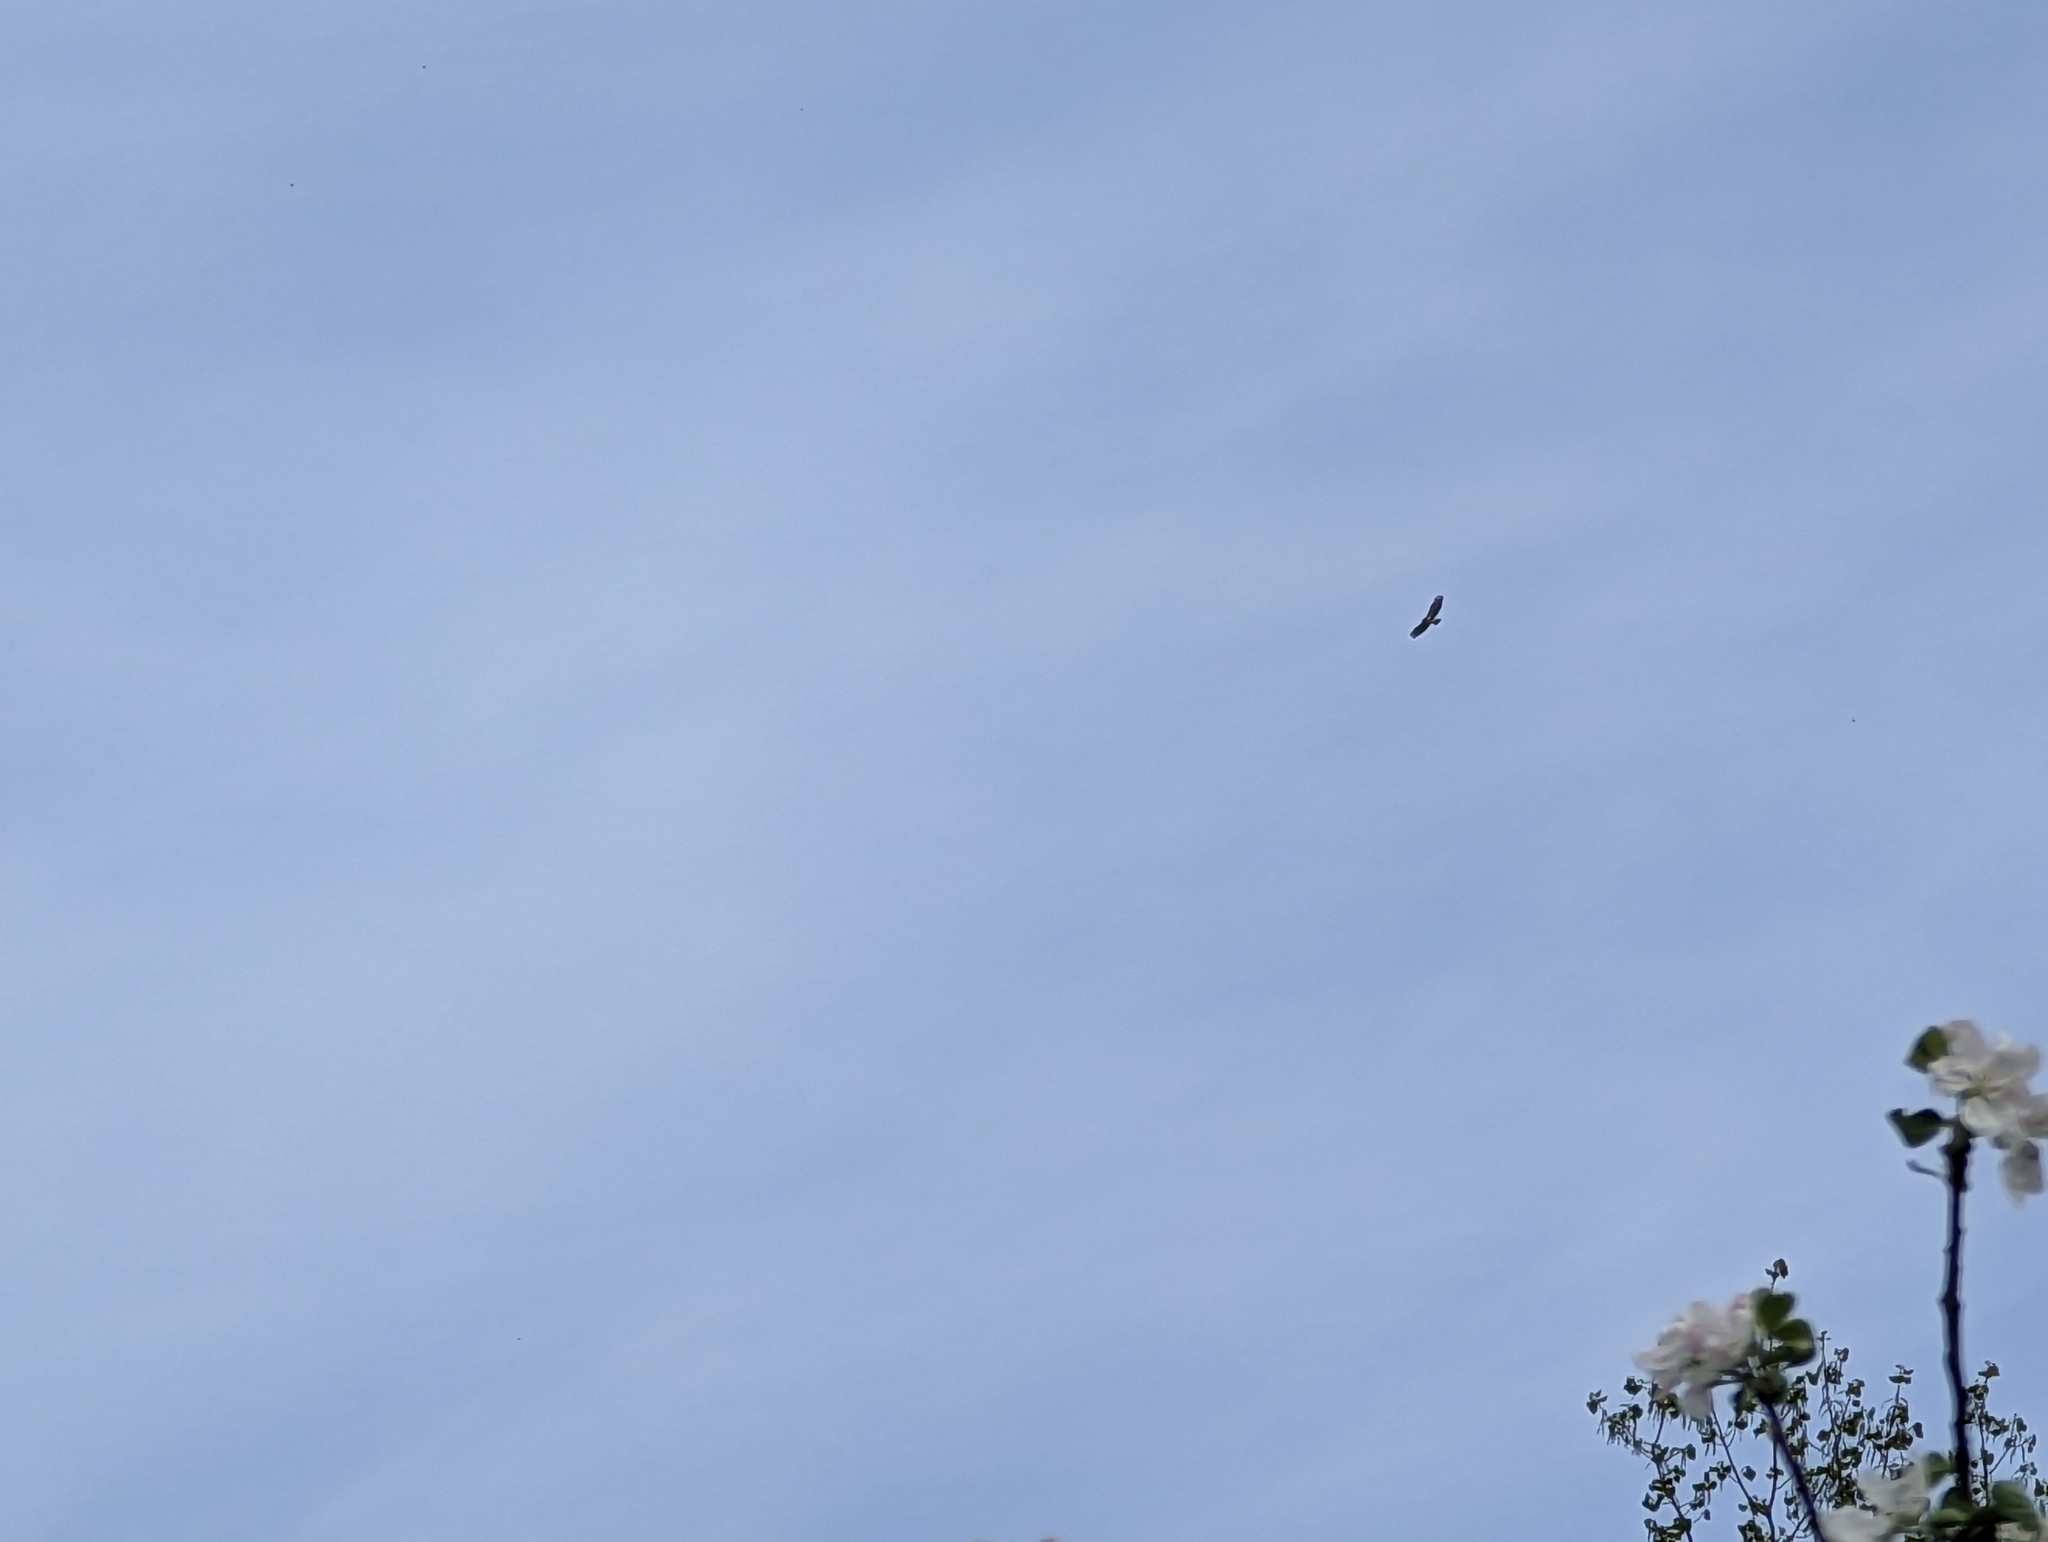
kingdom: Animalia
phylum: Chordata
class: Aves
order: Accipitriformes
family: Accipitridae
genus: Buteo
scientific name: Buteo buteo
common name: Common buzzard
